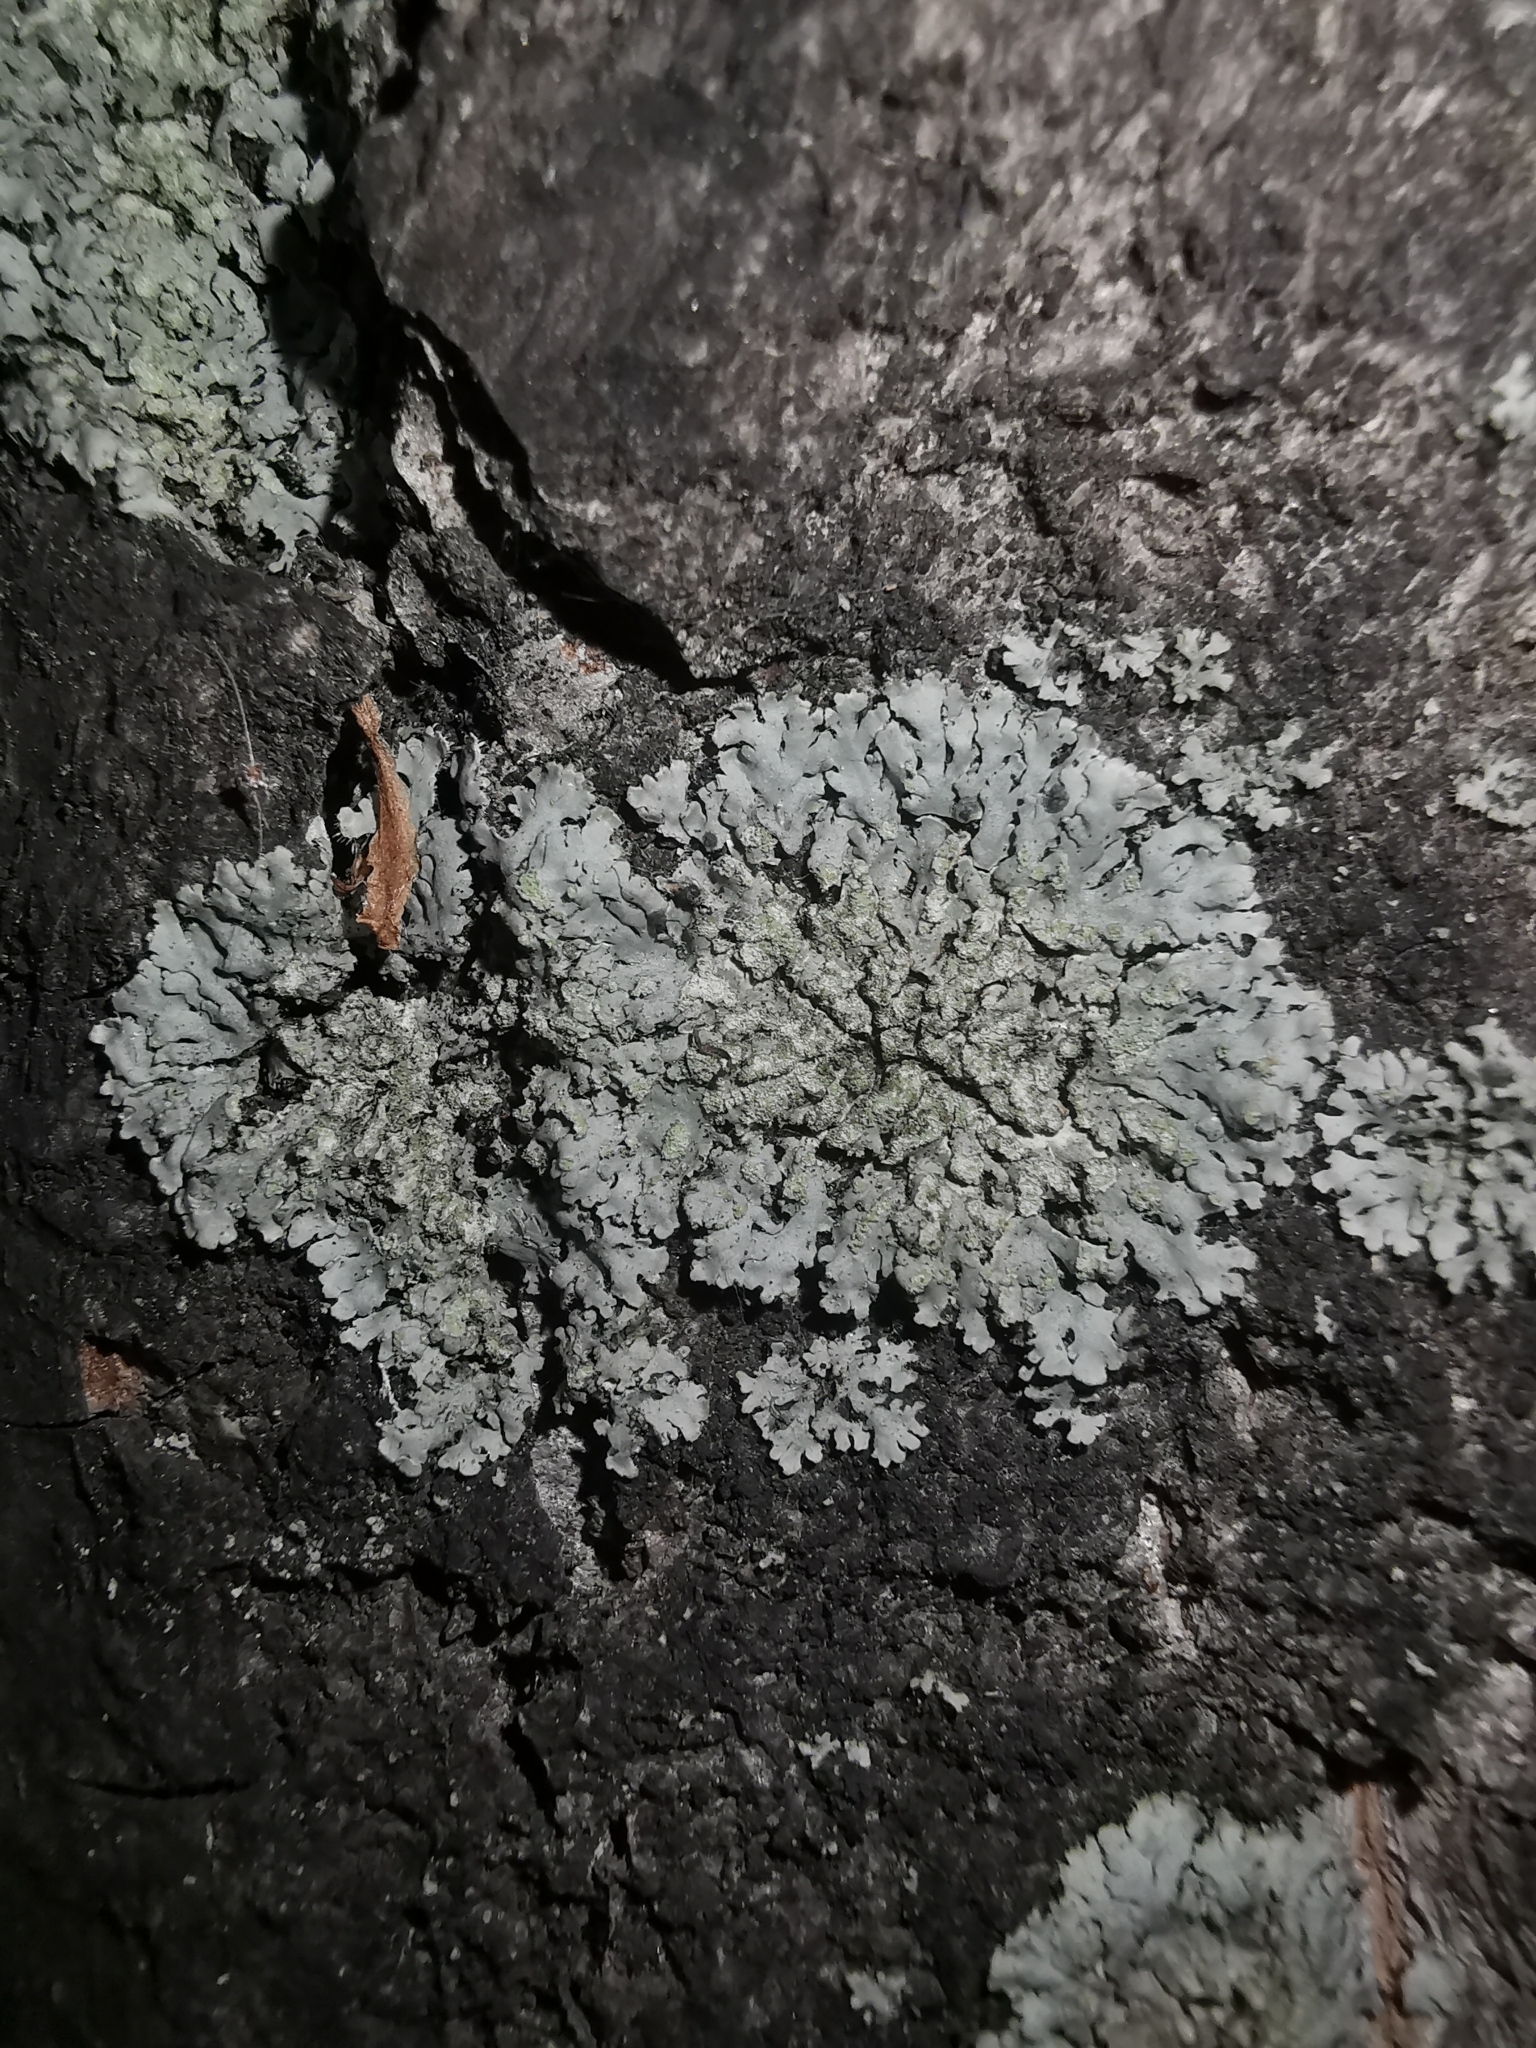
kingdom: Fungi
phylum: Ascomycota
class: Lecanoromycetes
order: Caliciales
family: Physciaceae
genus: Phaeophyscia
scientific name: Phaeophyscia orbicularis
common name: Mealy shadow lichen
